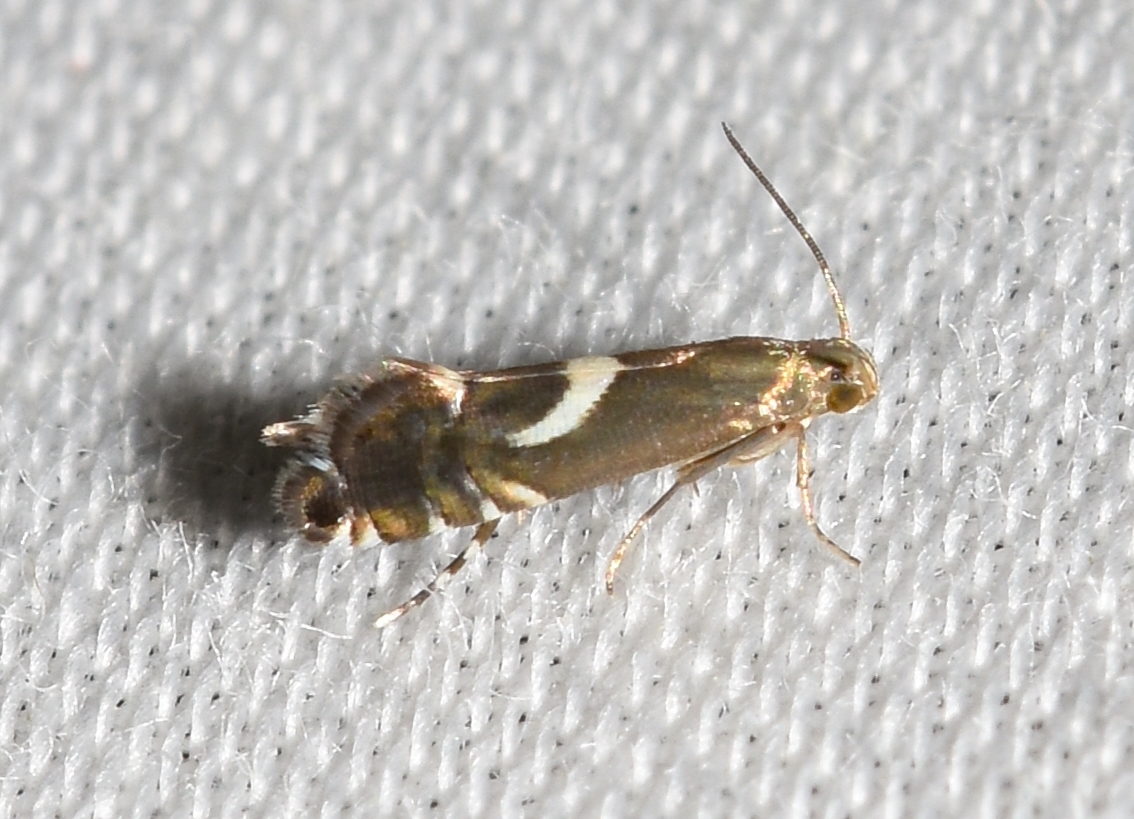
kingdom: Animalia
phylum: Arthropoda
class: Insecta
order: Lepidoptera
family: Glyphipterigidae
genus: Glyphipterix
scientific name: Glyphipterix Diploschizia impigritella
